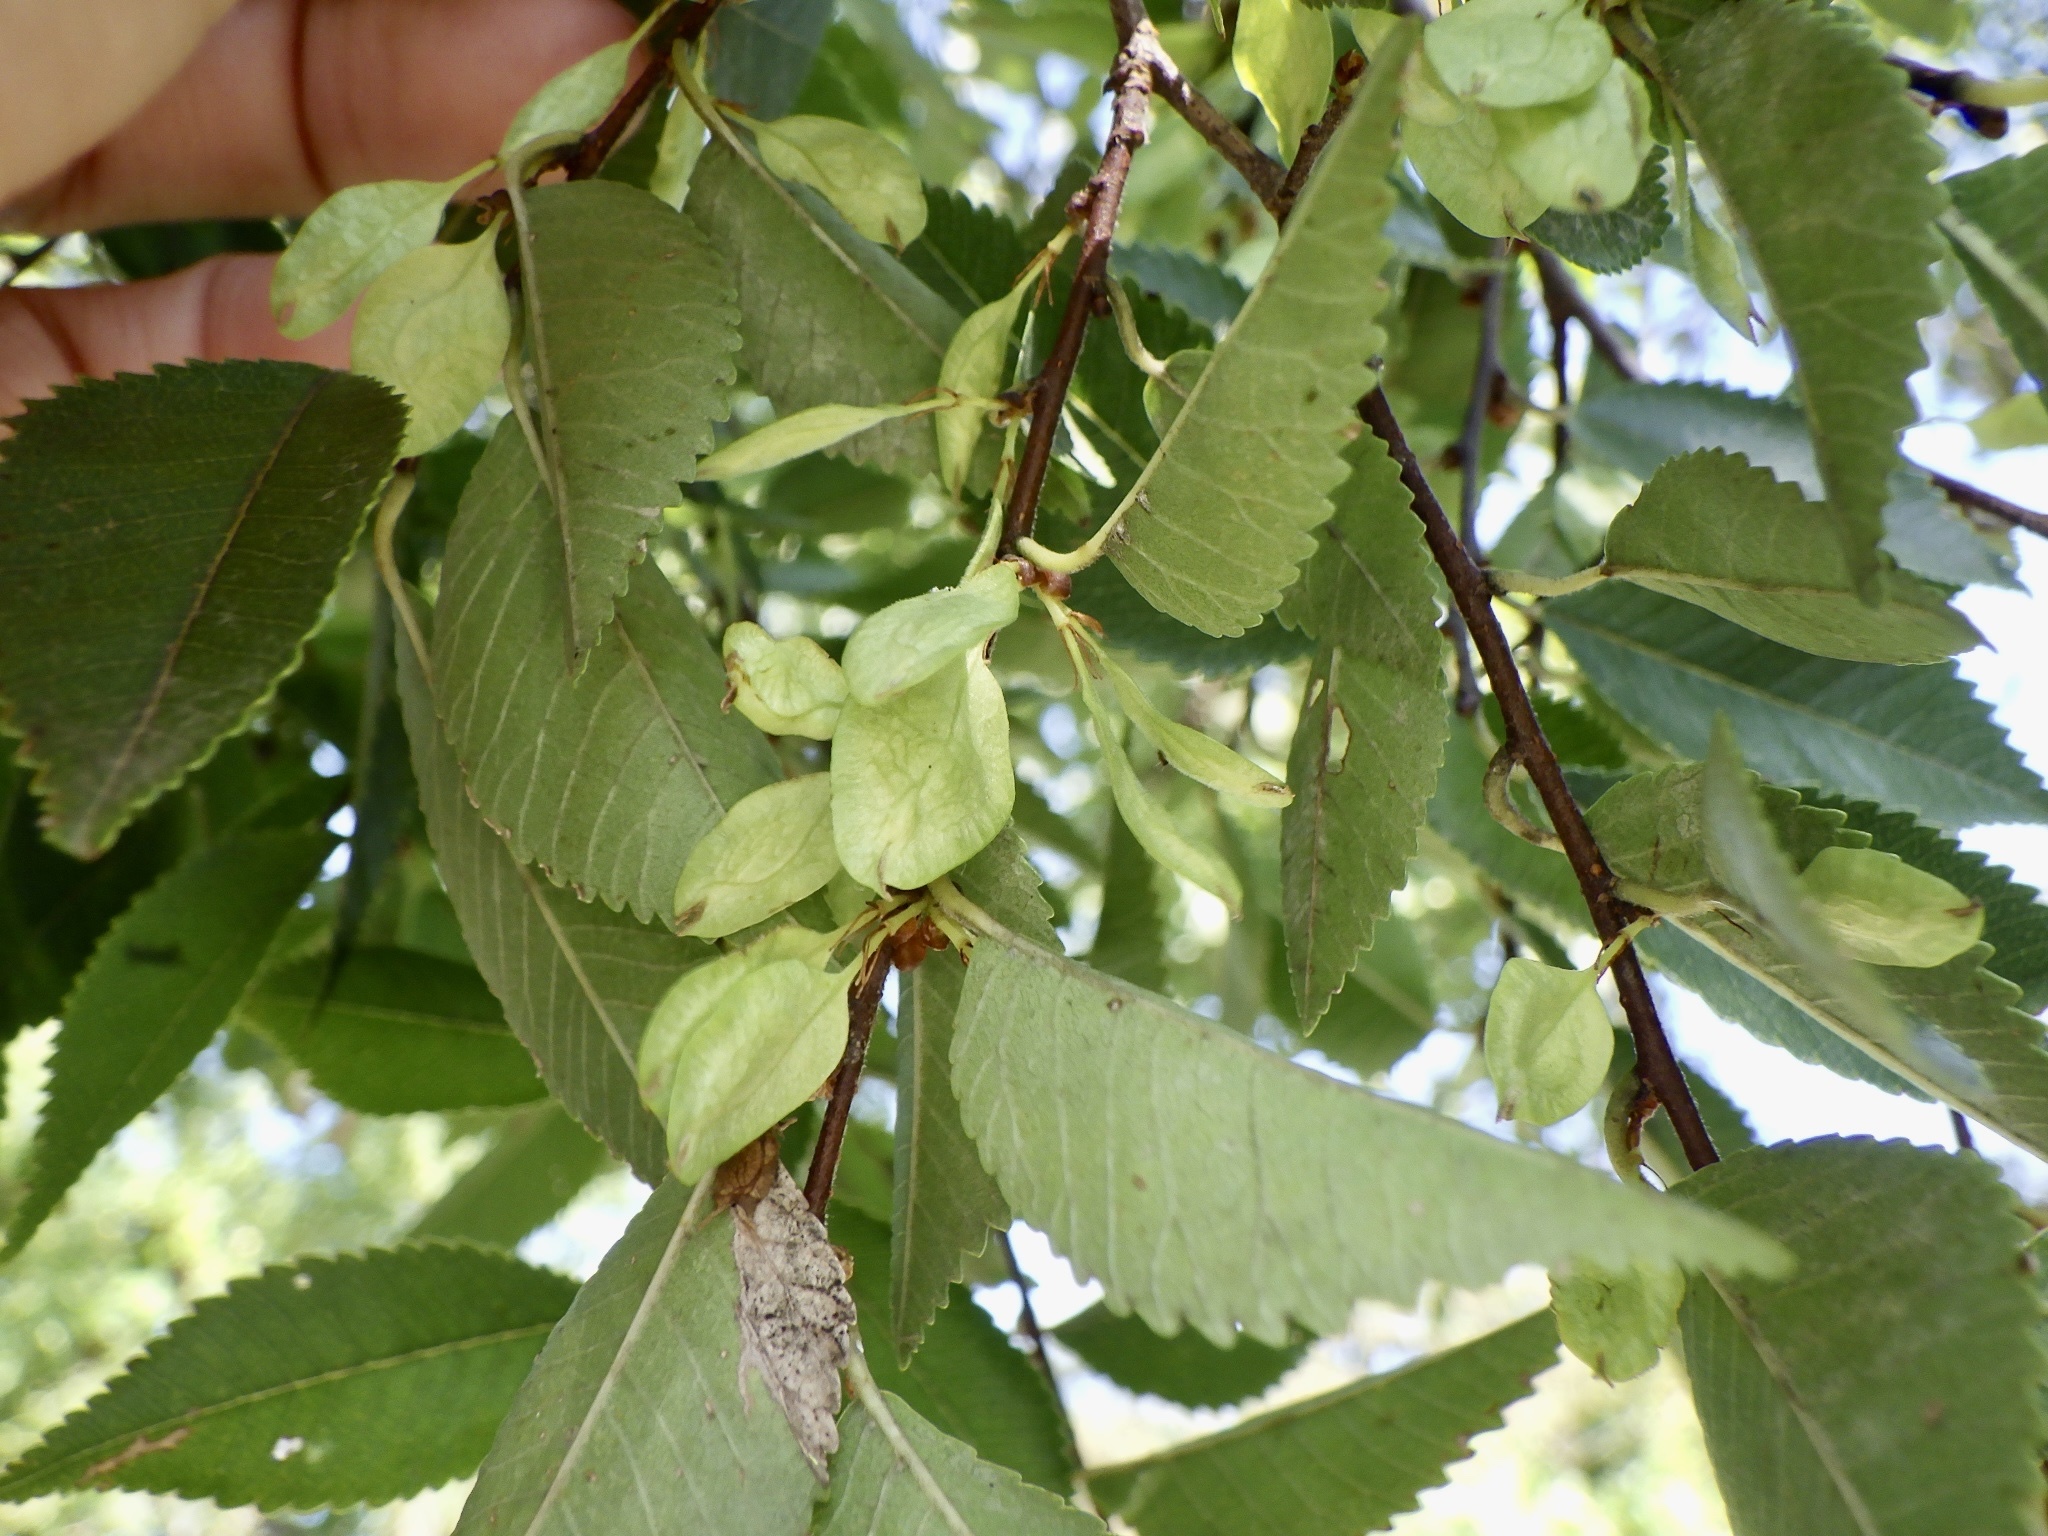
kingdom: Plantae
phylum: Tracheophyta
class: Magnoliopsida
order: Rosales
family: Ulmaceae
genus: Ulmus
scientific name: Ulmus parvifolia
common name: Chinese elm
